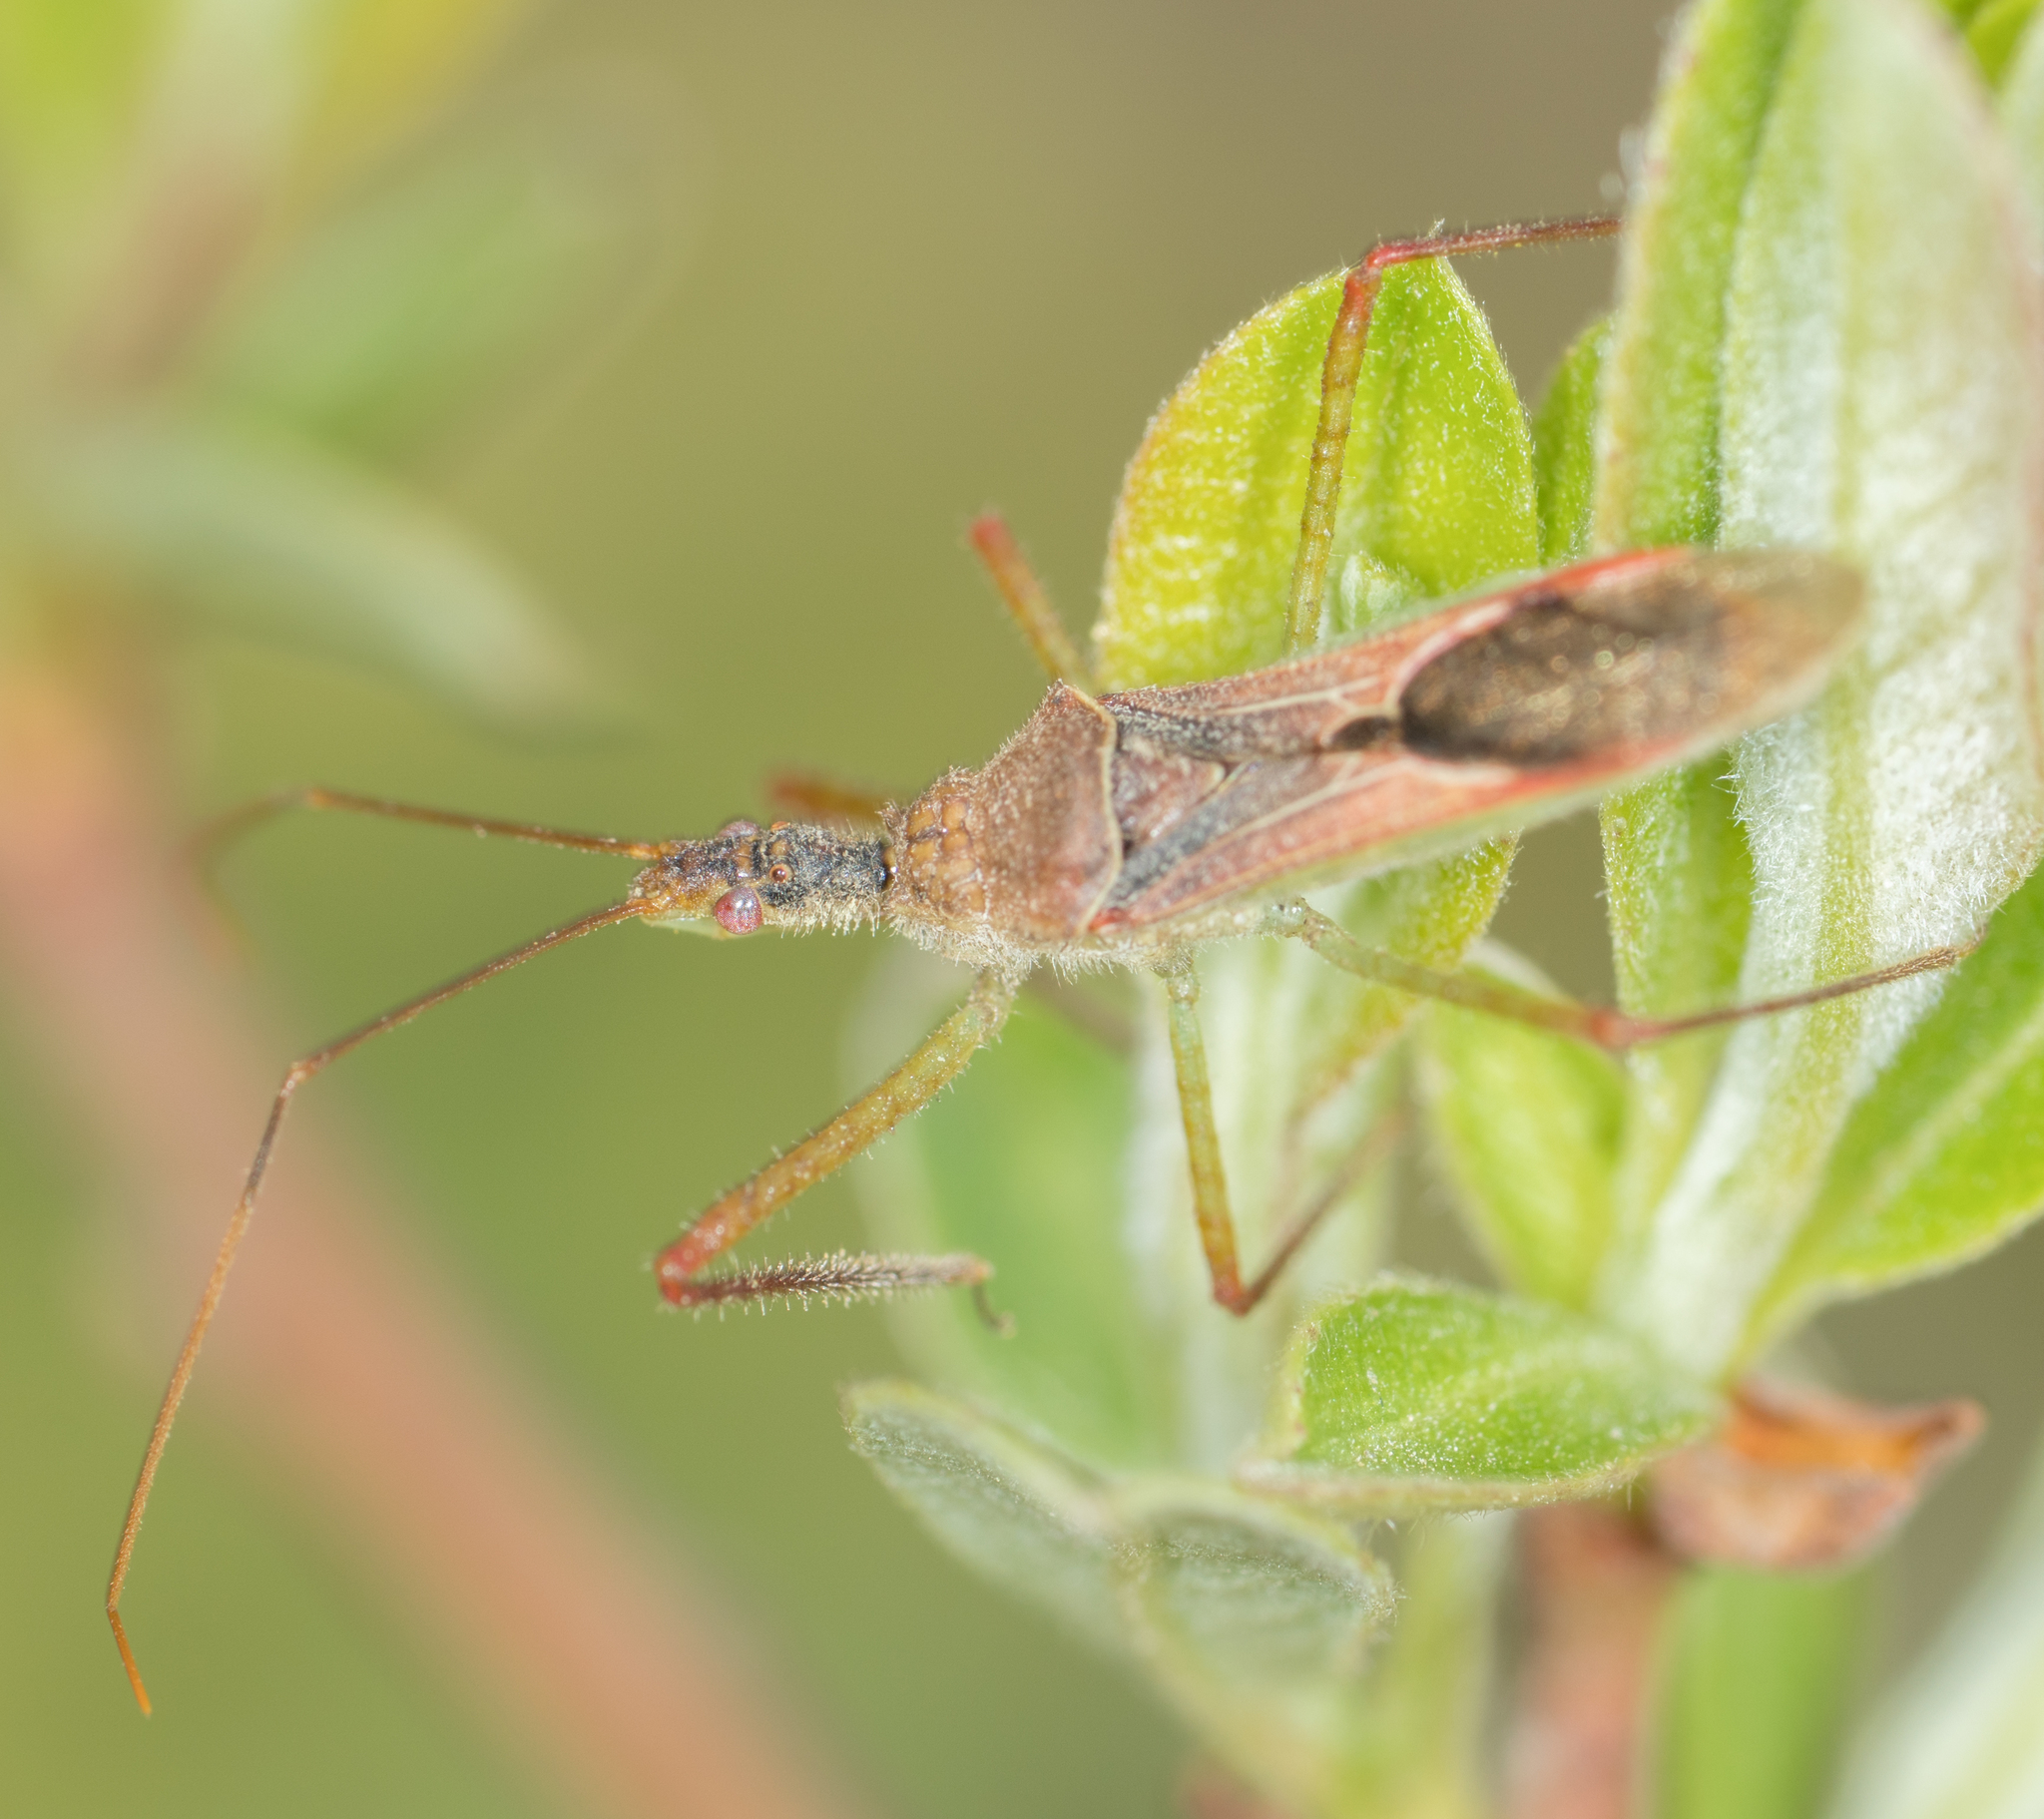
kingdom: Animalia
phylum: Arthropoda
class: Insecta
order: Hemiptera
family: Reduviidae
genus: Zelus
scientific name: Zelus renardii
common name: Assassin bug
